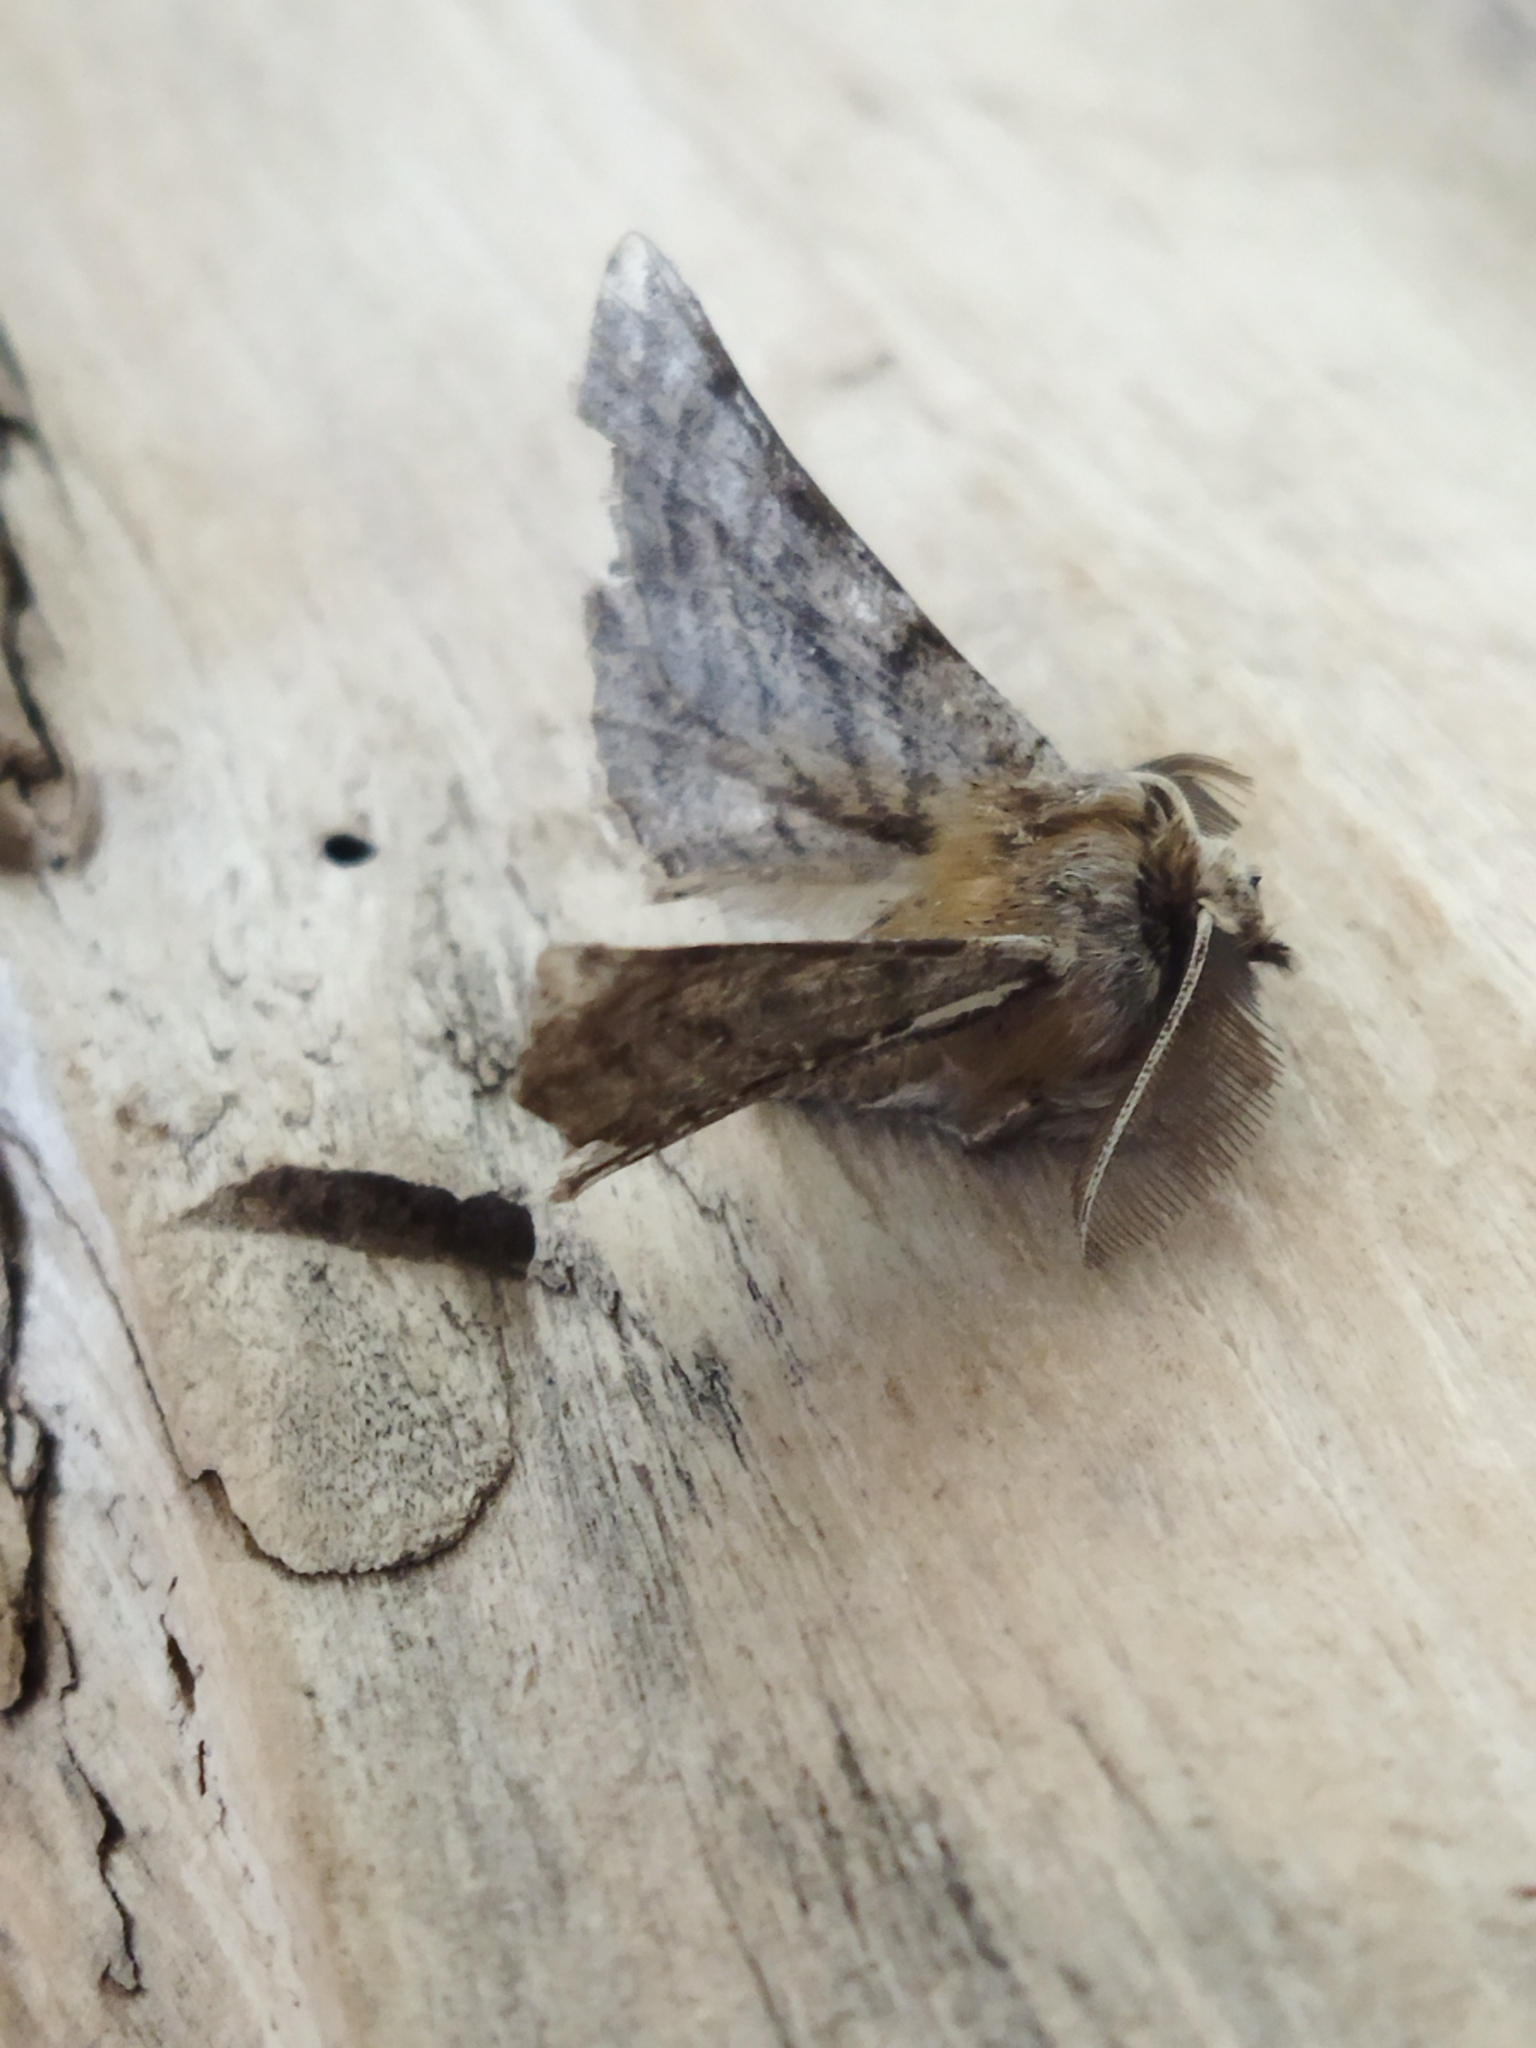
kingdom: Animalia
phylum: Arthropoda
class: Insecta
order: Lepidoptera
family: Geometridae
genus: Apochima
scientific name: Apochima flabellaria
